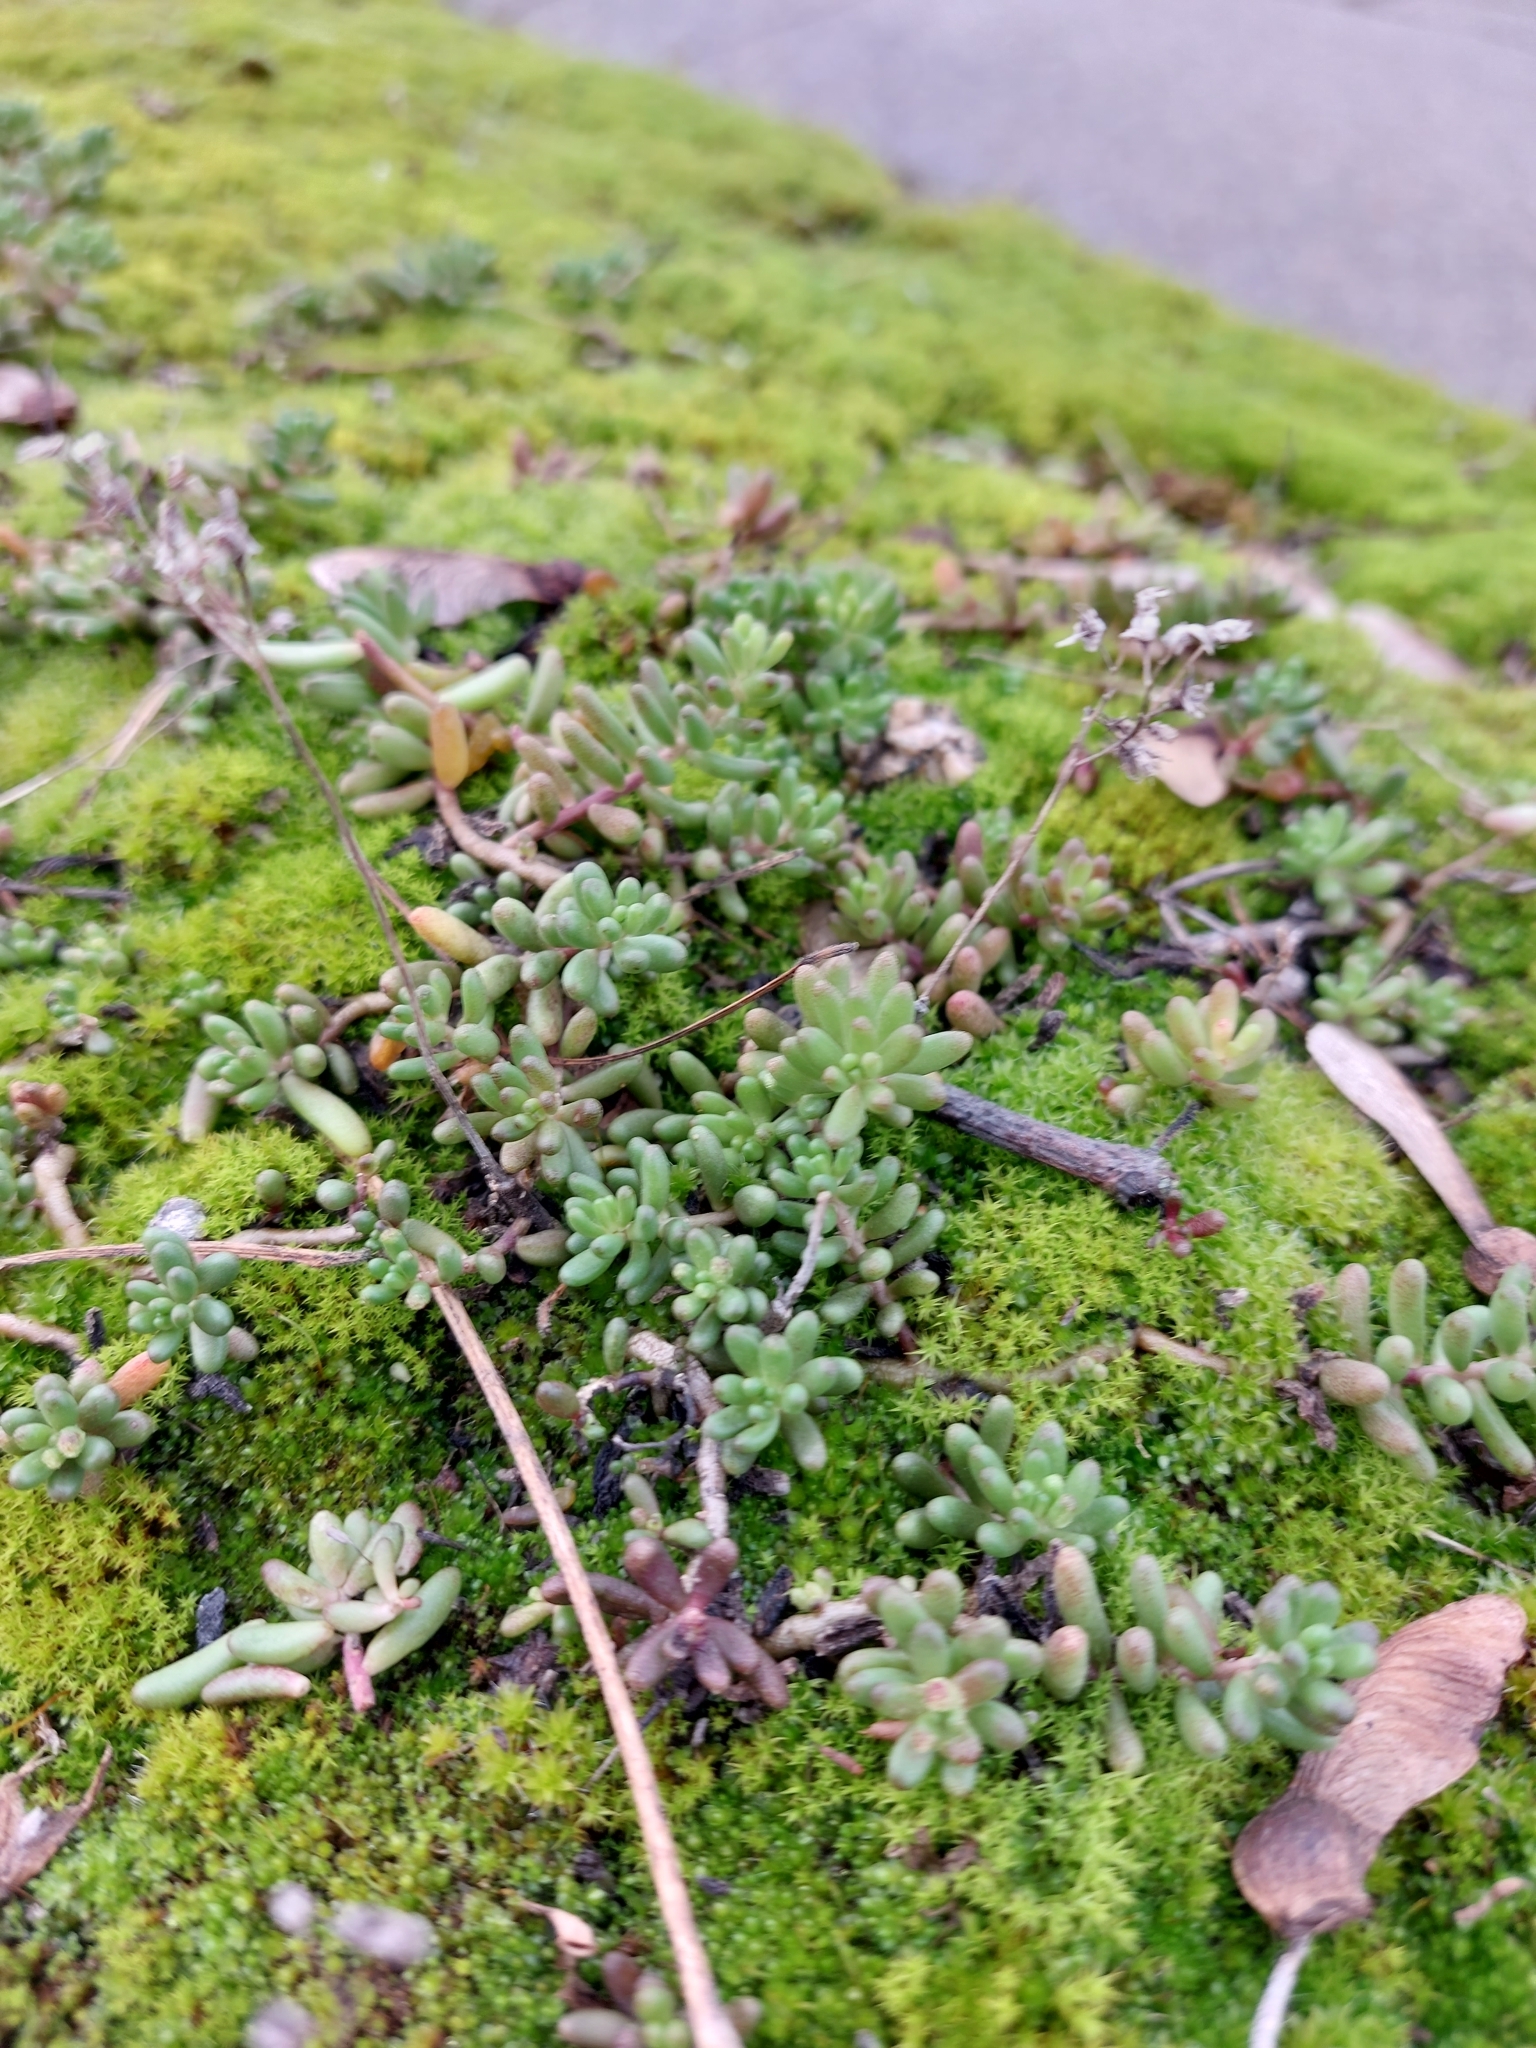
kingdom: Plantae
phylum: Tracheophyta
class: Magnoliopsida
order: Saxifragales
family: Crassulaceae
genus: Sedum
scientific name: Sedum album
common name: White stonecrop
